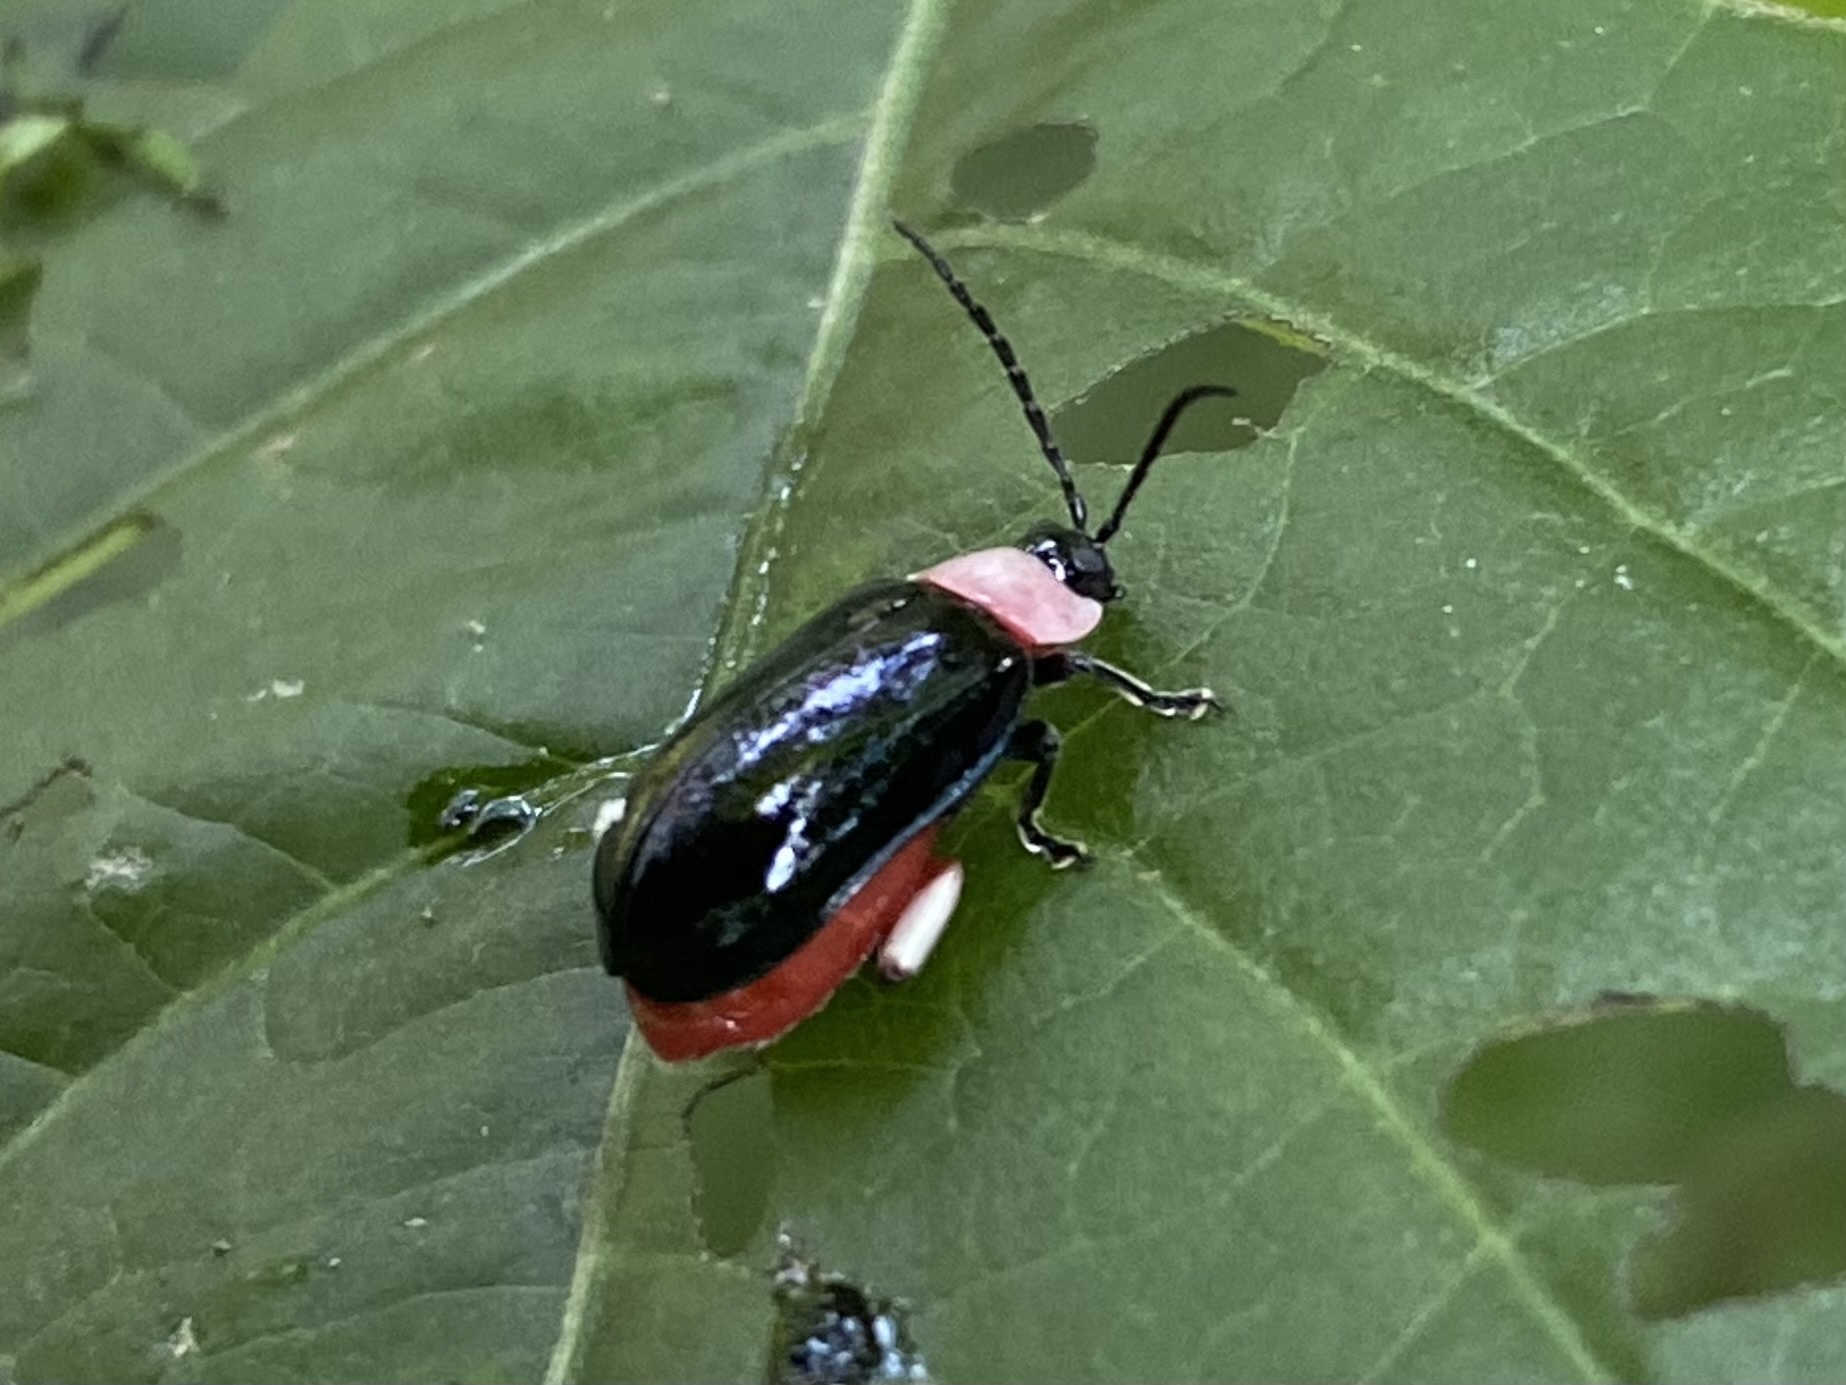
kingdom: Animalia
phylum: Arthropoda
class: Insecta
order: Coleoptera
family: Chrysomelidae
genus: Asphaera
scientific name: Asphaera
